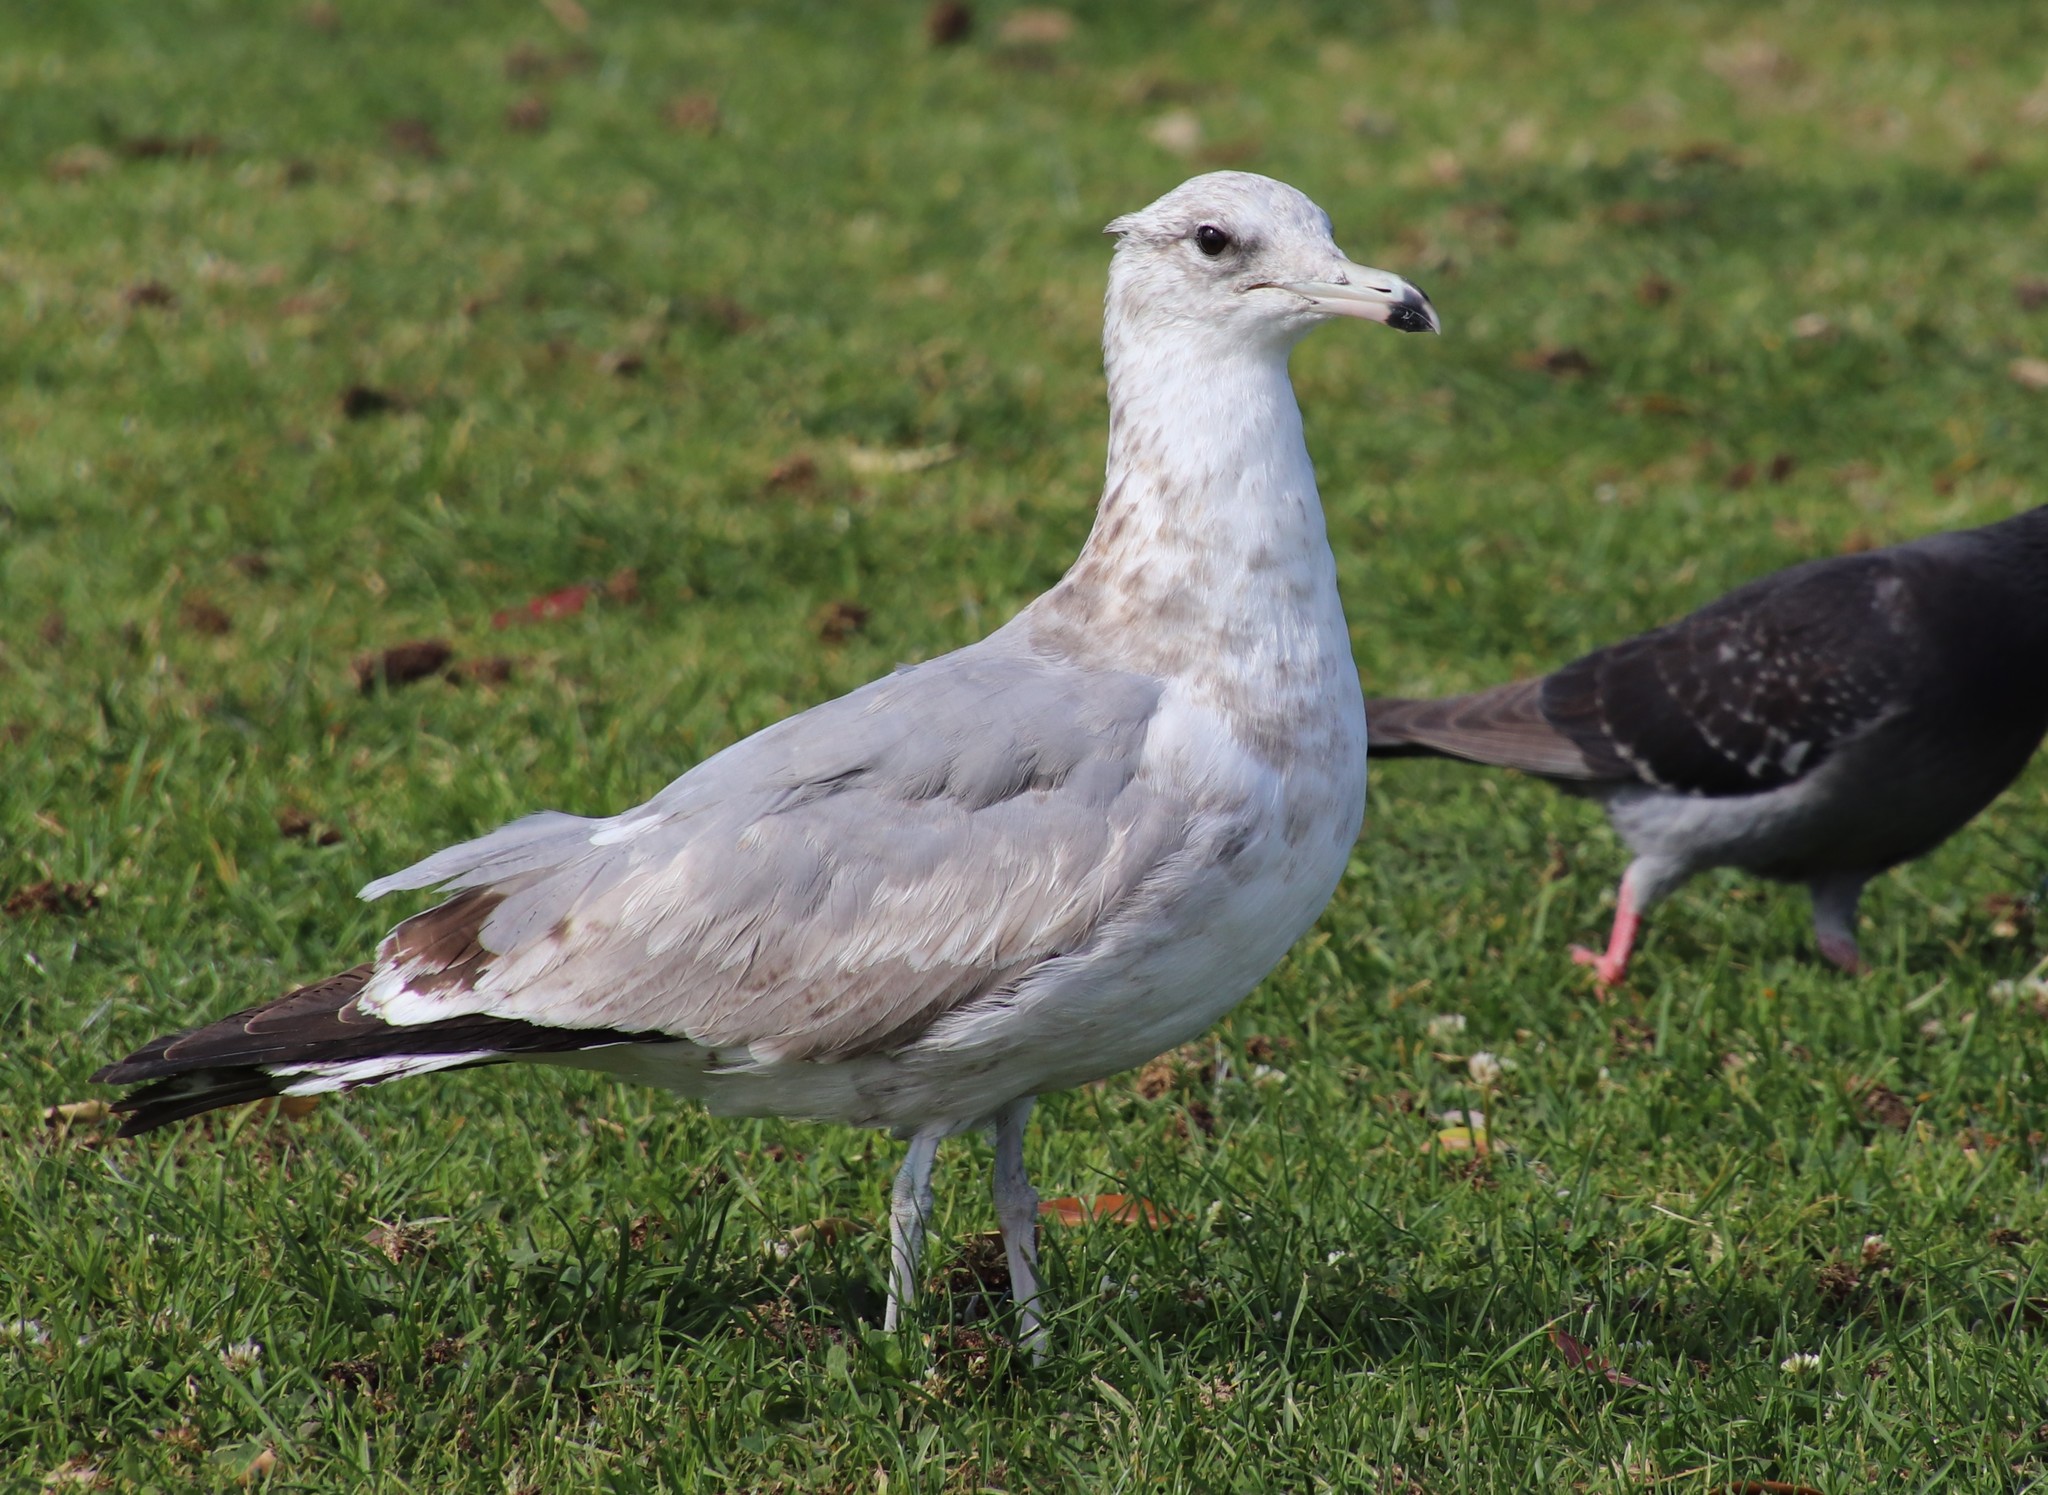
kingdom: Animalia
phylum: Chordata
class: Aves
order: Charadriiformes
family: Laridae
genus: Larus
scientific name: Larus californicus
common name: California gull
